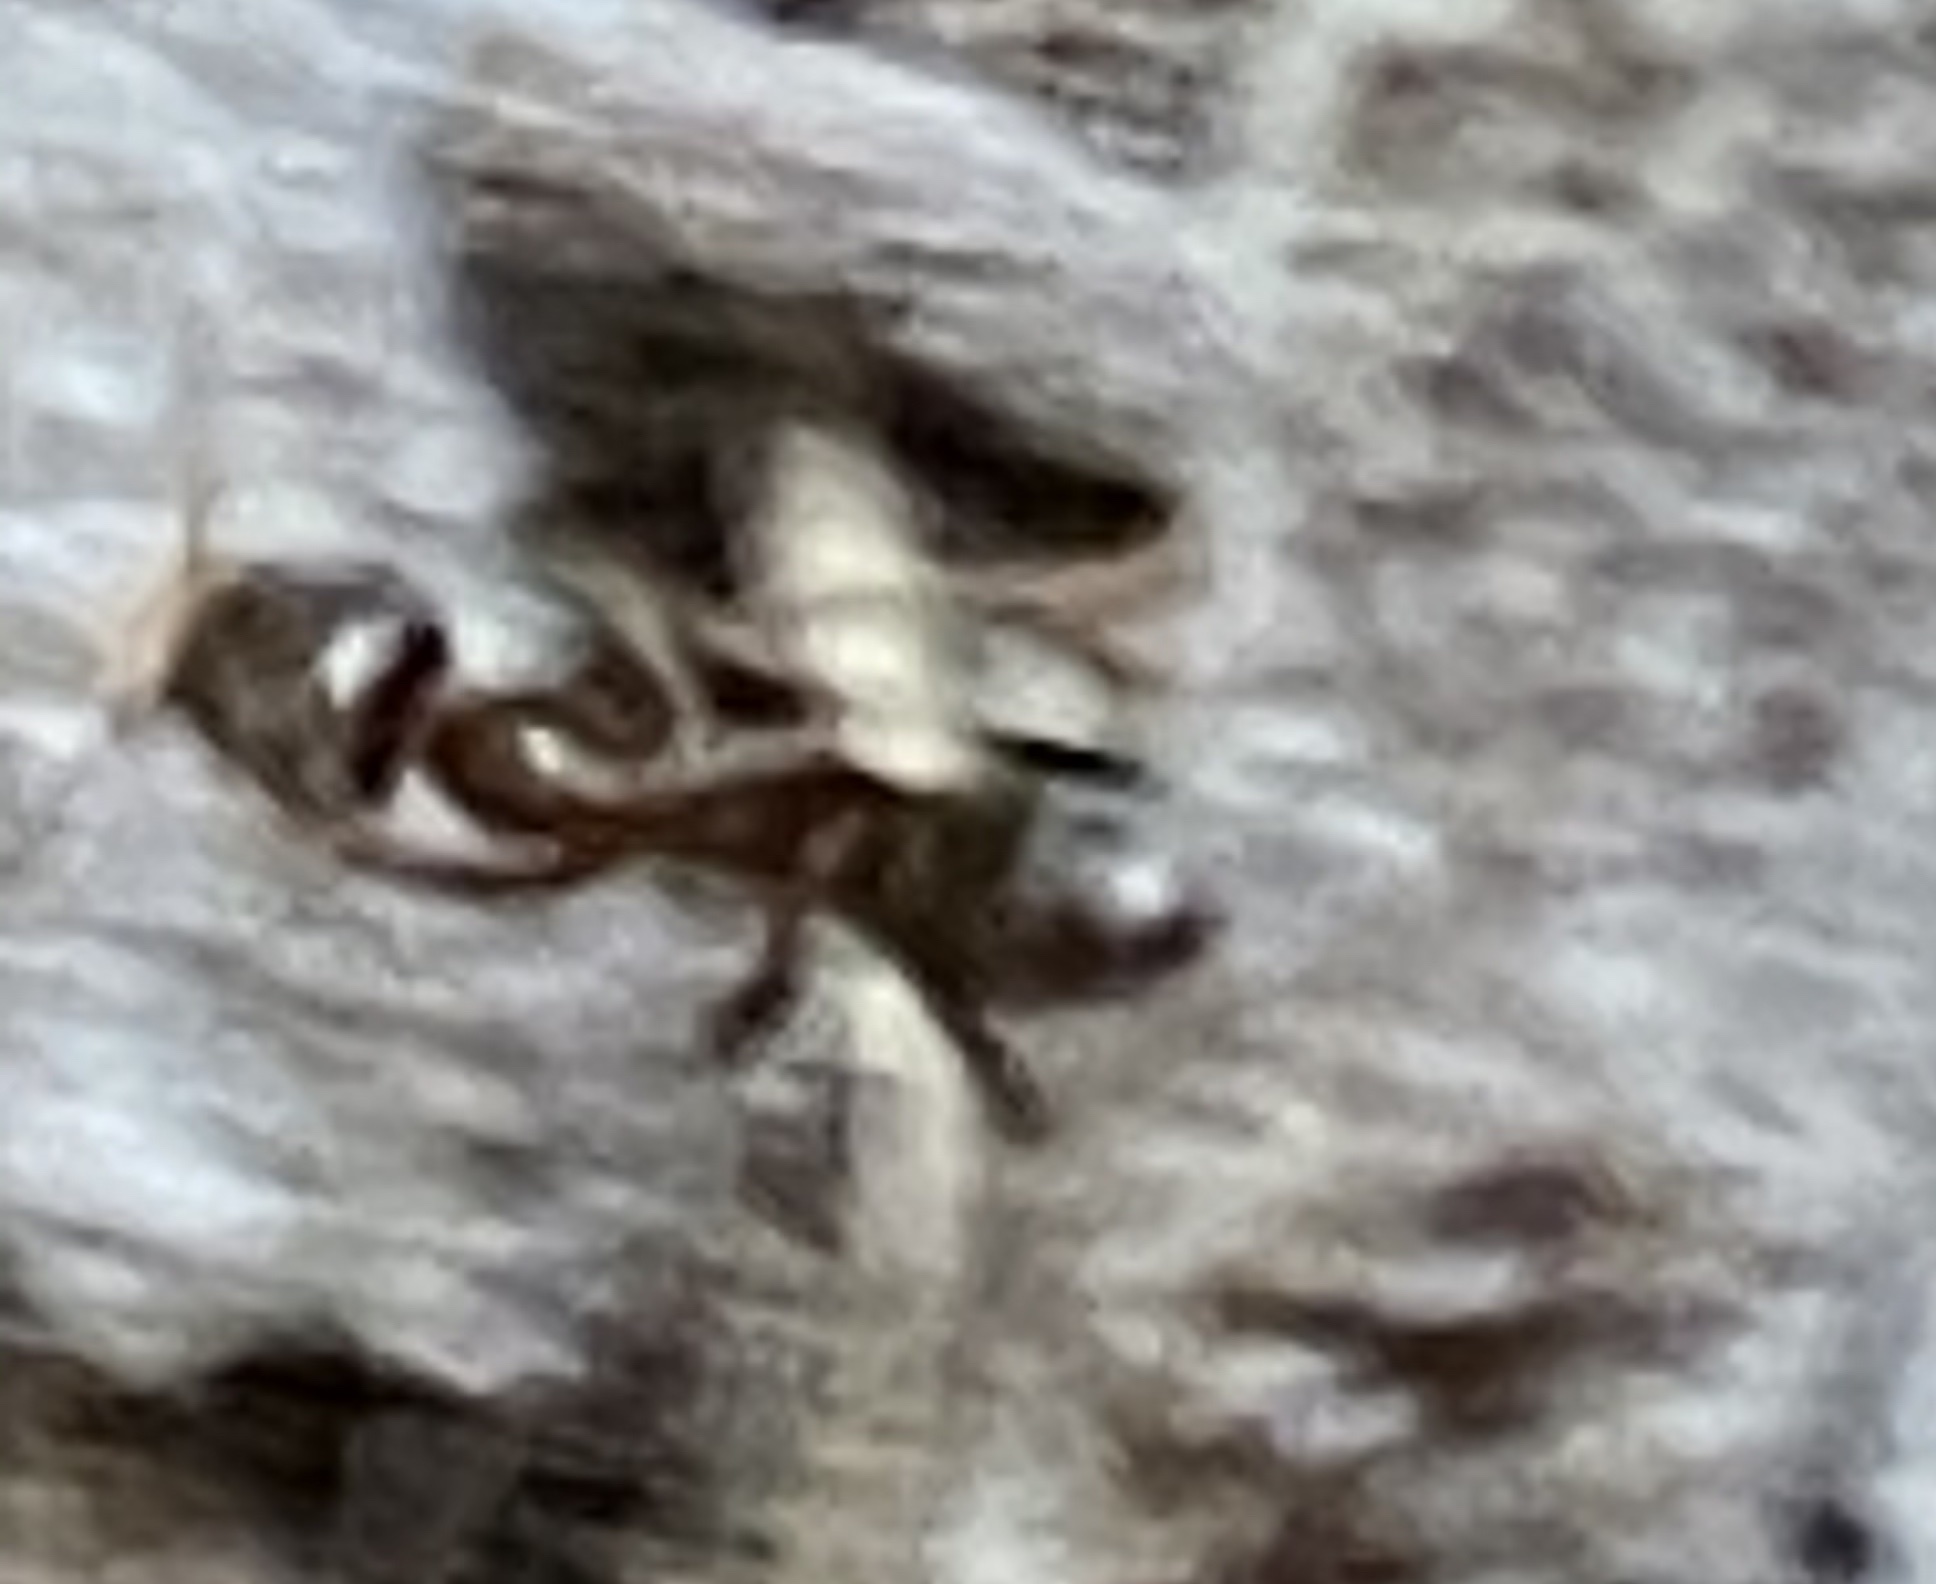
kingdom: Animalia
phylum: Arthropoda
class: Insecta
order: Hymenoptera
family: Formicidae
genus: Linepithema
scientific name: Linepithema humile
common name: Argentine ant
